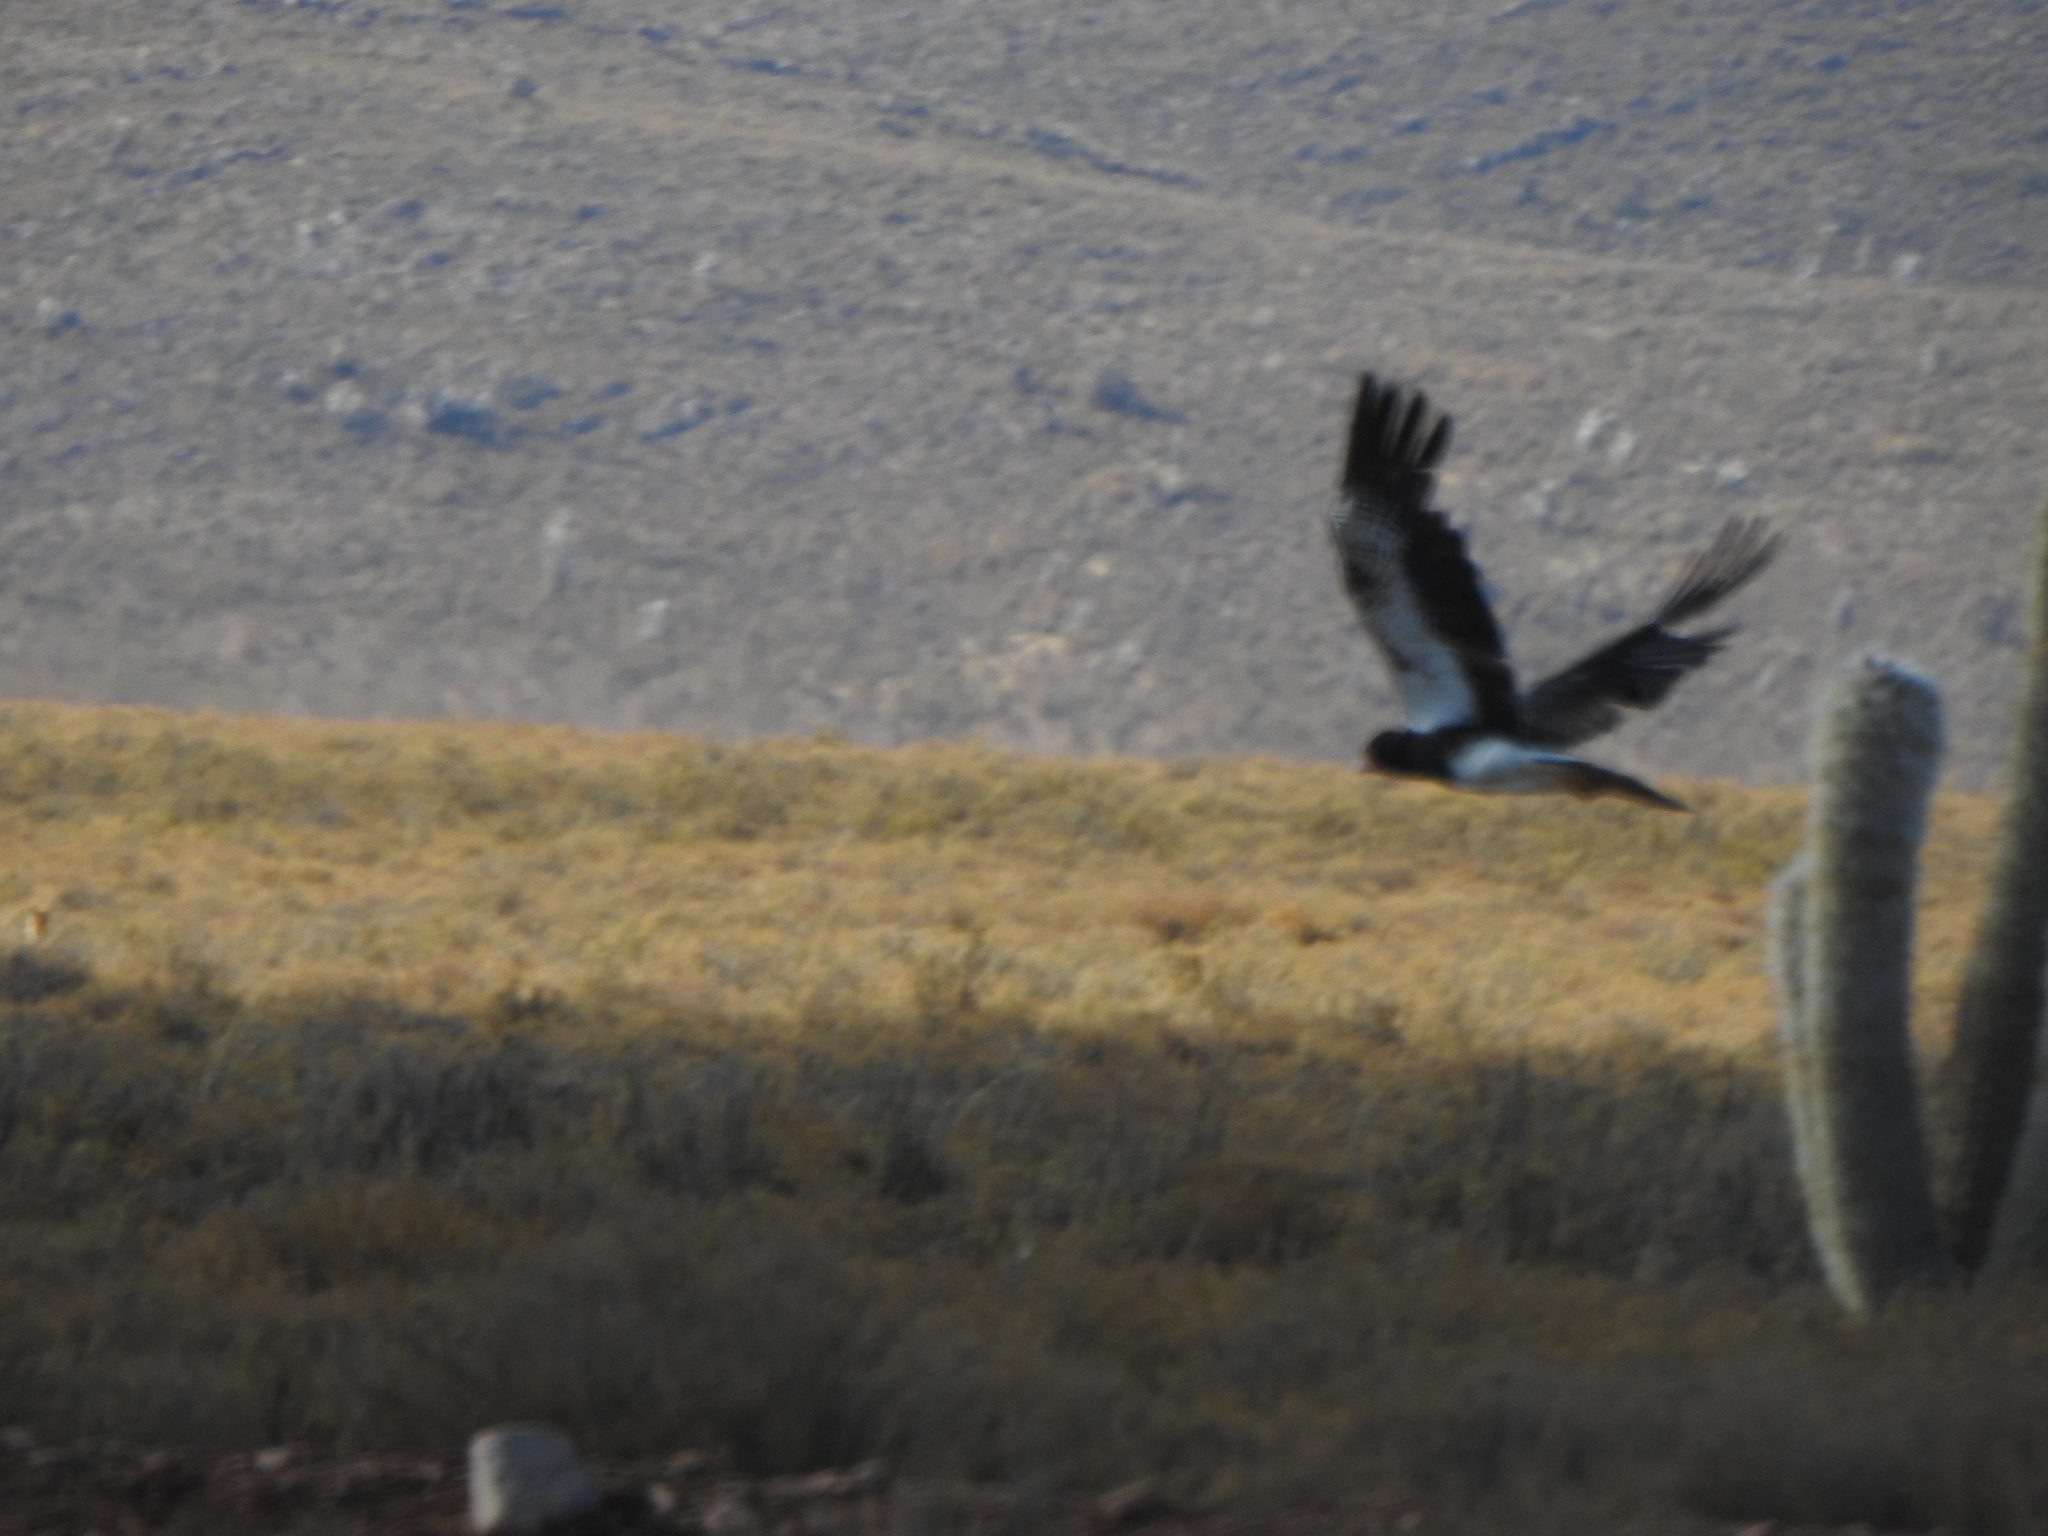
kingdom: Animalia
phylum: Chordata
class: Aves
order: Falconiformes
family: Falconidae
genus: Daptrius
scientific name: Daptrius
